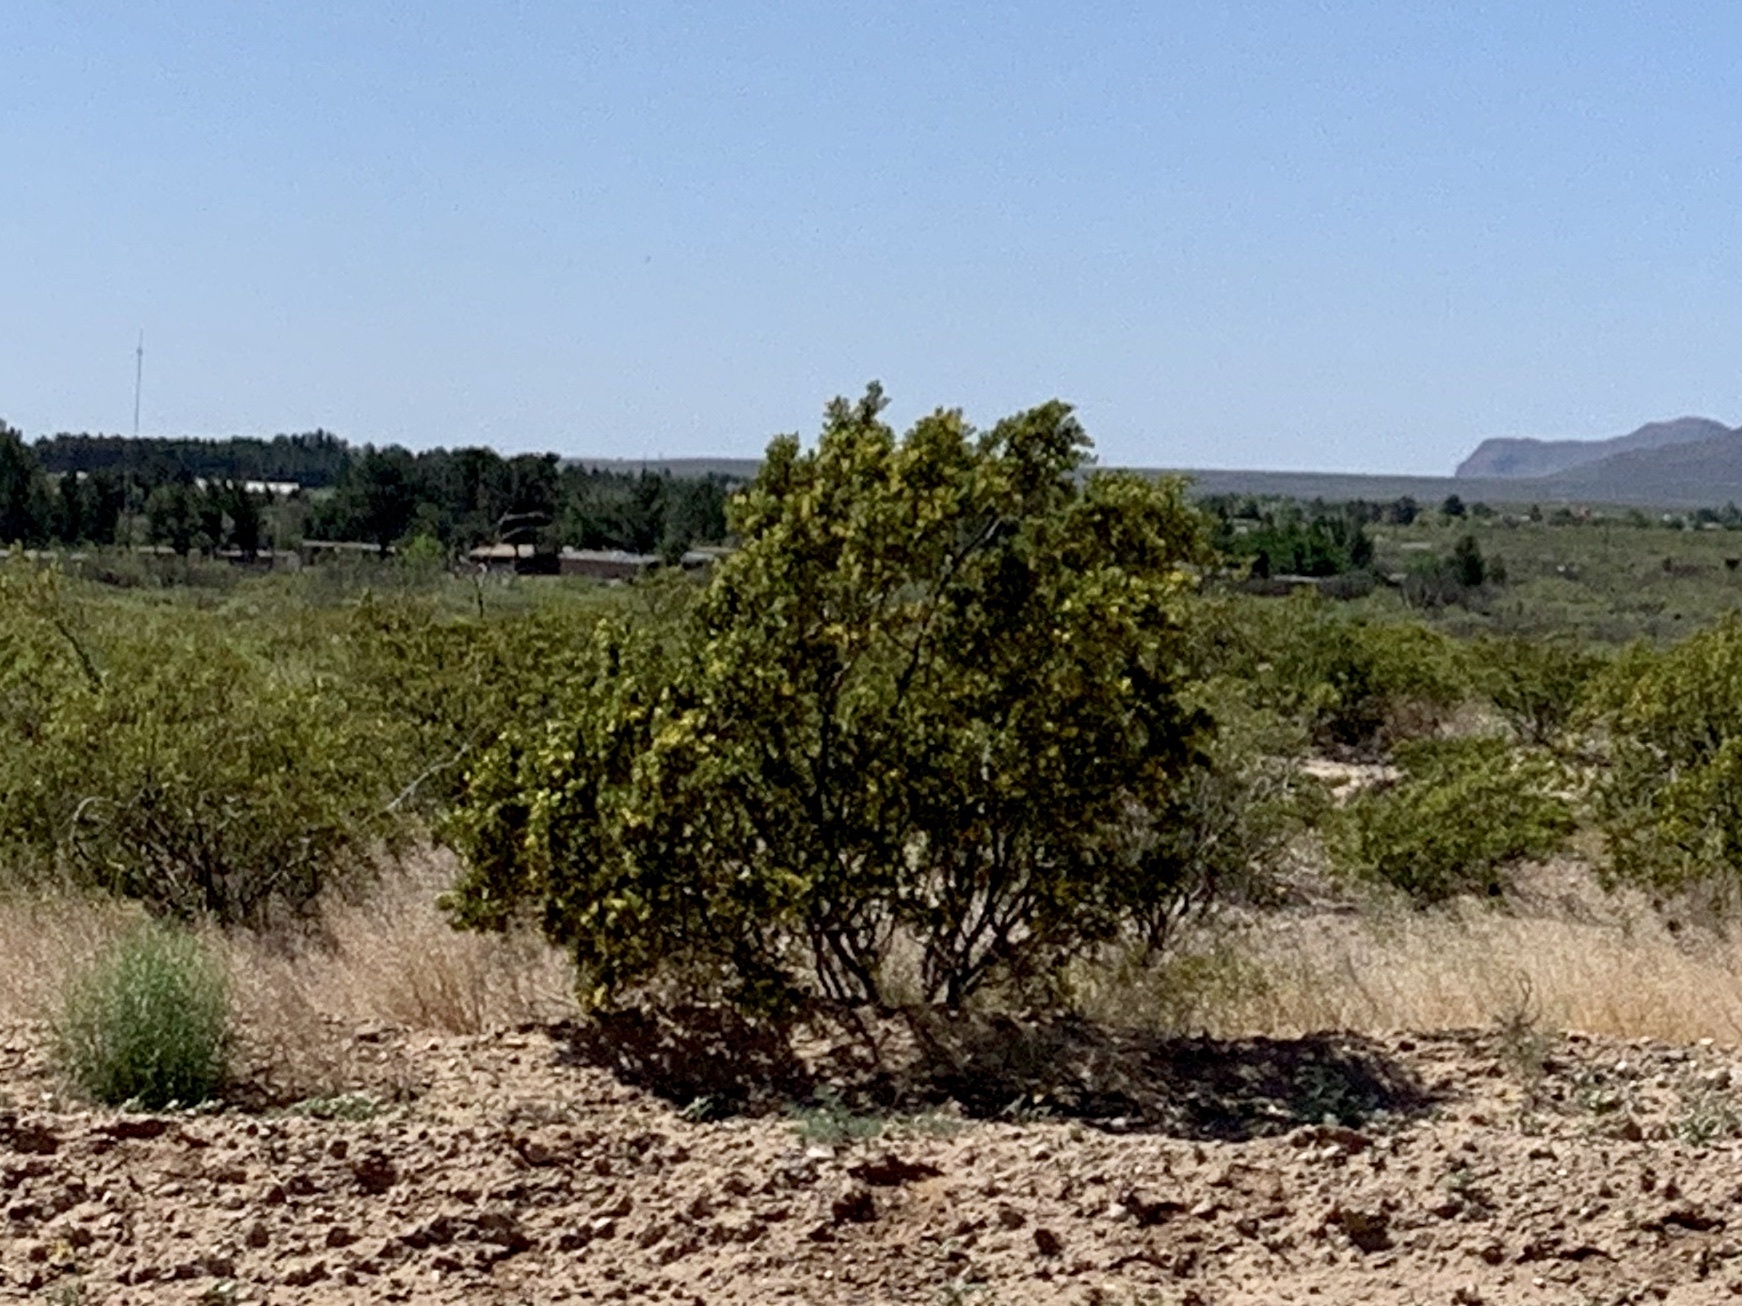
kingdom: Plantae
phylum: Tracheophyta
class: Magnoliopsida
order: Zygophyllales
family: Zygophyllaceae
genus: Larrea
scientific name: Larrea tridentata
